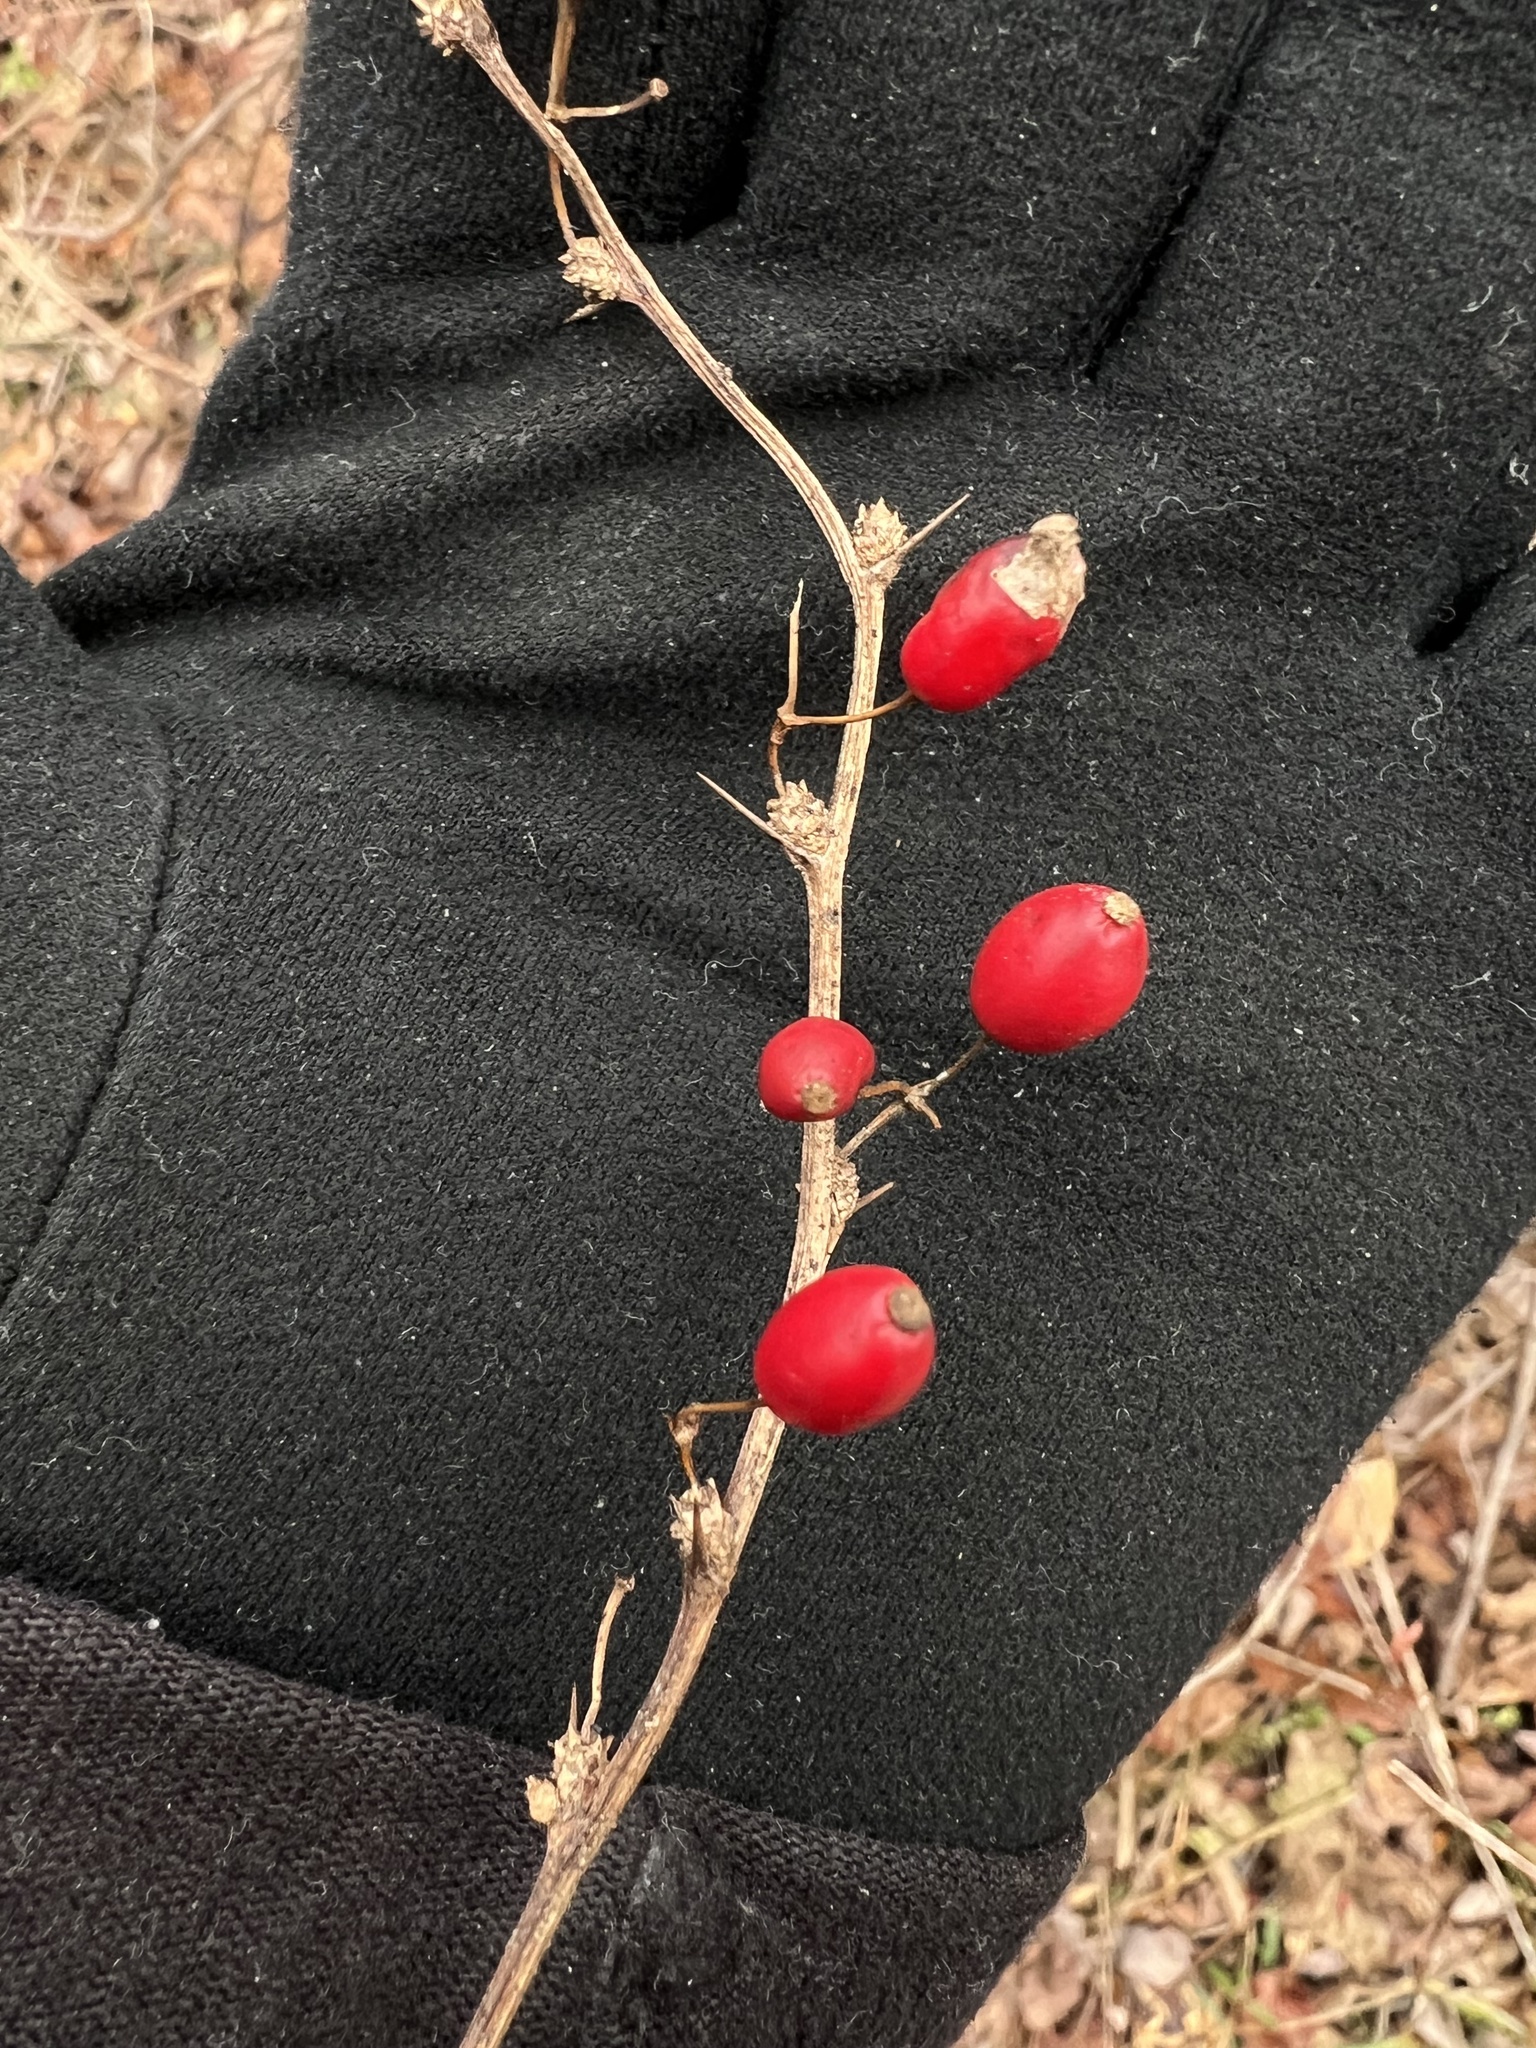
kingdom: Plantae
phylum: Tracheophyta
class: Magnoliopsida
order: Ranunculales
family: Berberidaceae
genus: Berberis
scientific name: Berberis thunbergii
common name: Japanese barberry
